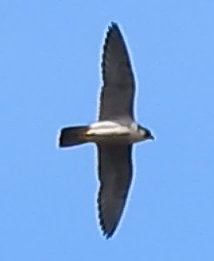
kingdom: Animalia
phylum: Chordata
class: Aves
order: Falconiformes
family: Falconidae
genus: Falco
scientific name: Falco peregrinus
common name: Peregrine falcon
